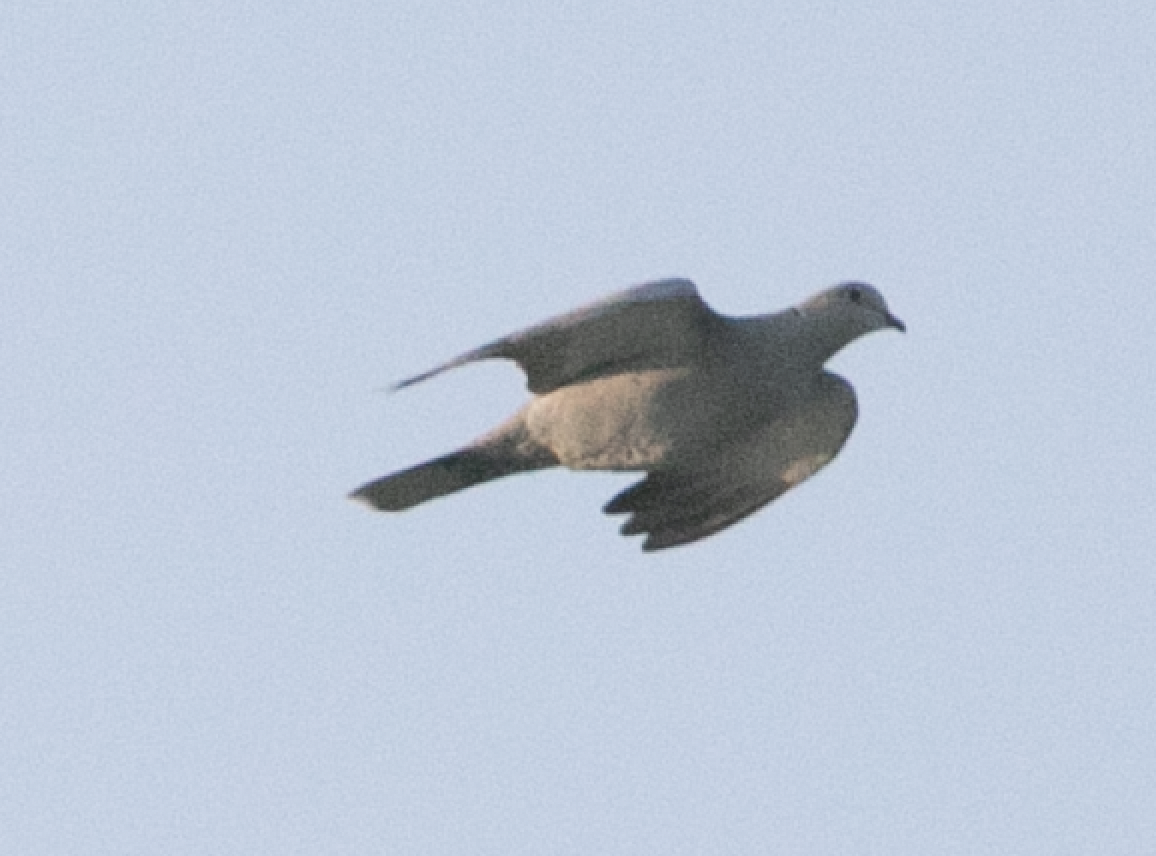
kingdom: Animalia
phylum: Chordata
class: Aves
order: Columbiformes
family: Columbidae
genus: Streptopelia
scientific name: Streptopelia decaocto
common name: Eurasian collared dove
